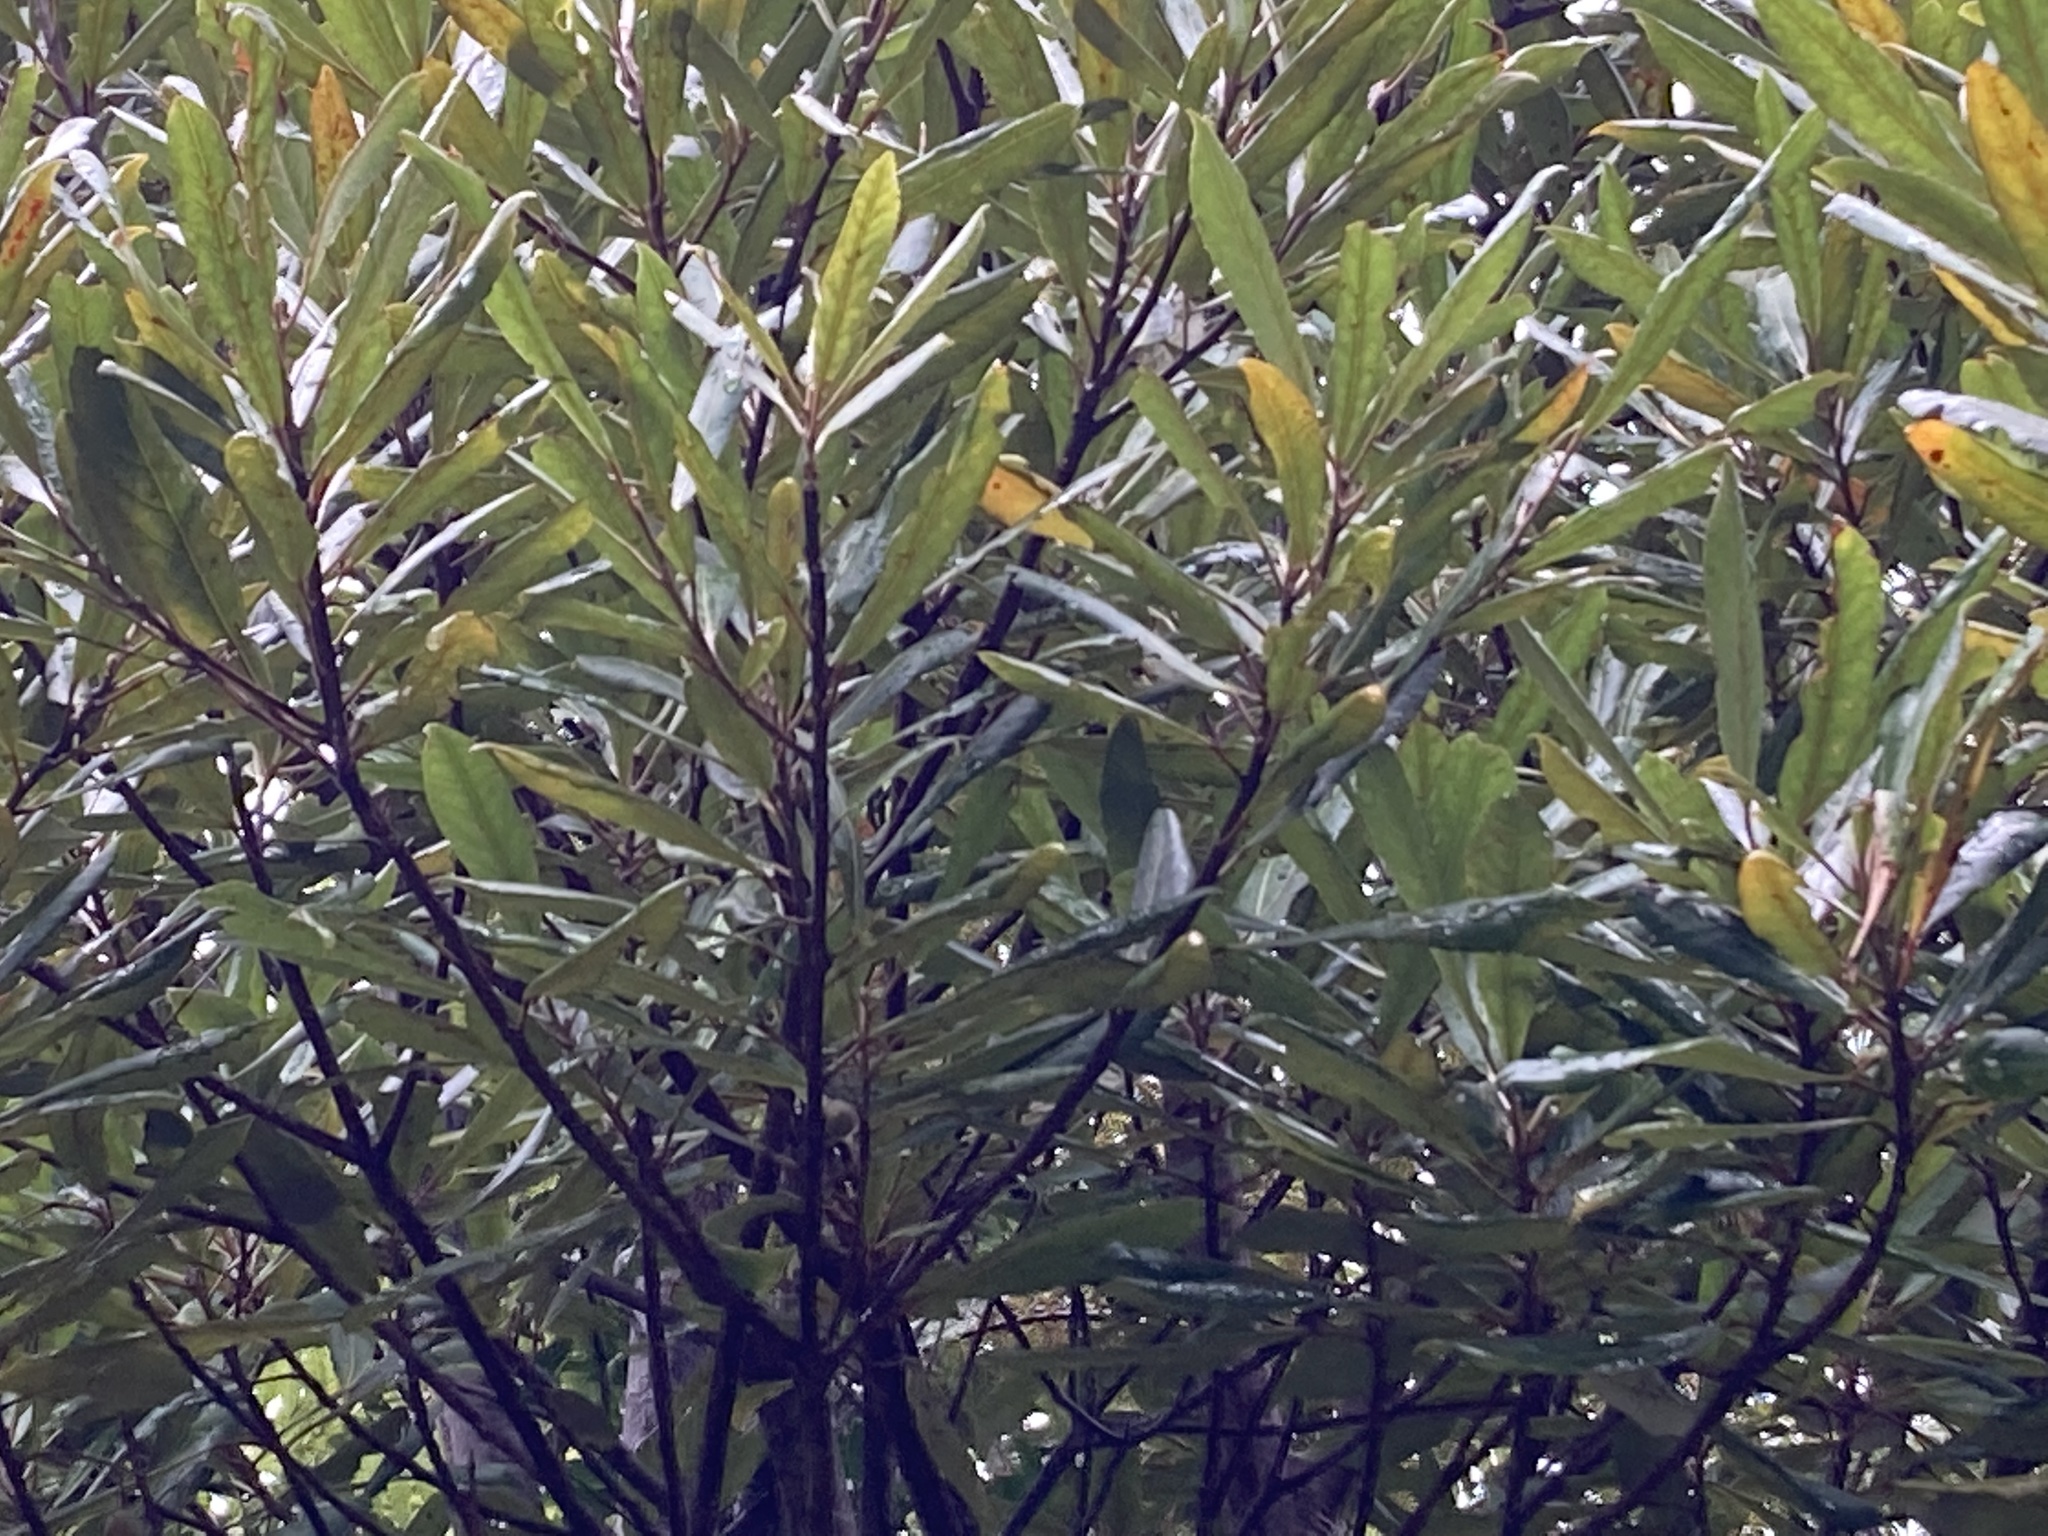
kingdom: Plantae
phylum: Tracheophyta
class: Magnoliopsida
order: Oxalidales
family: Elaeocarpaceae
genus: Elaeocarpus
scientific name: Elaeocarpus dentatus
